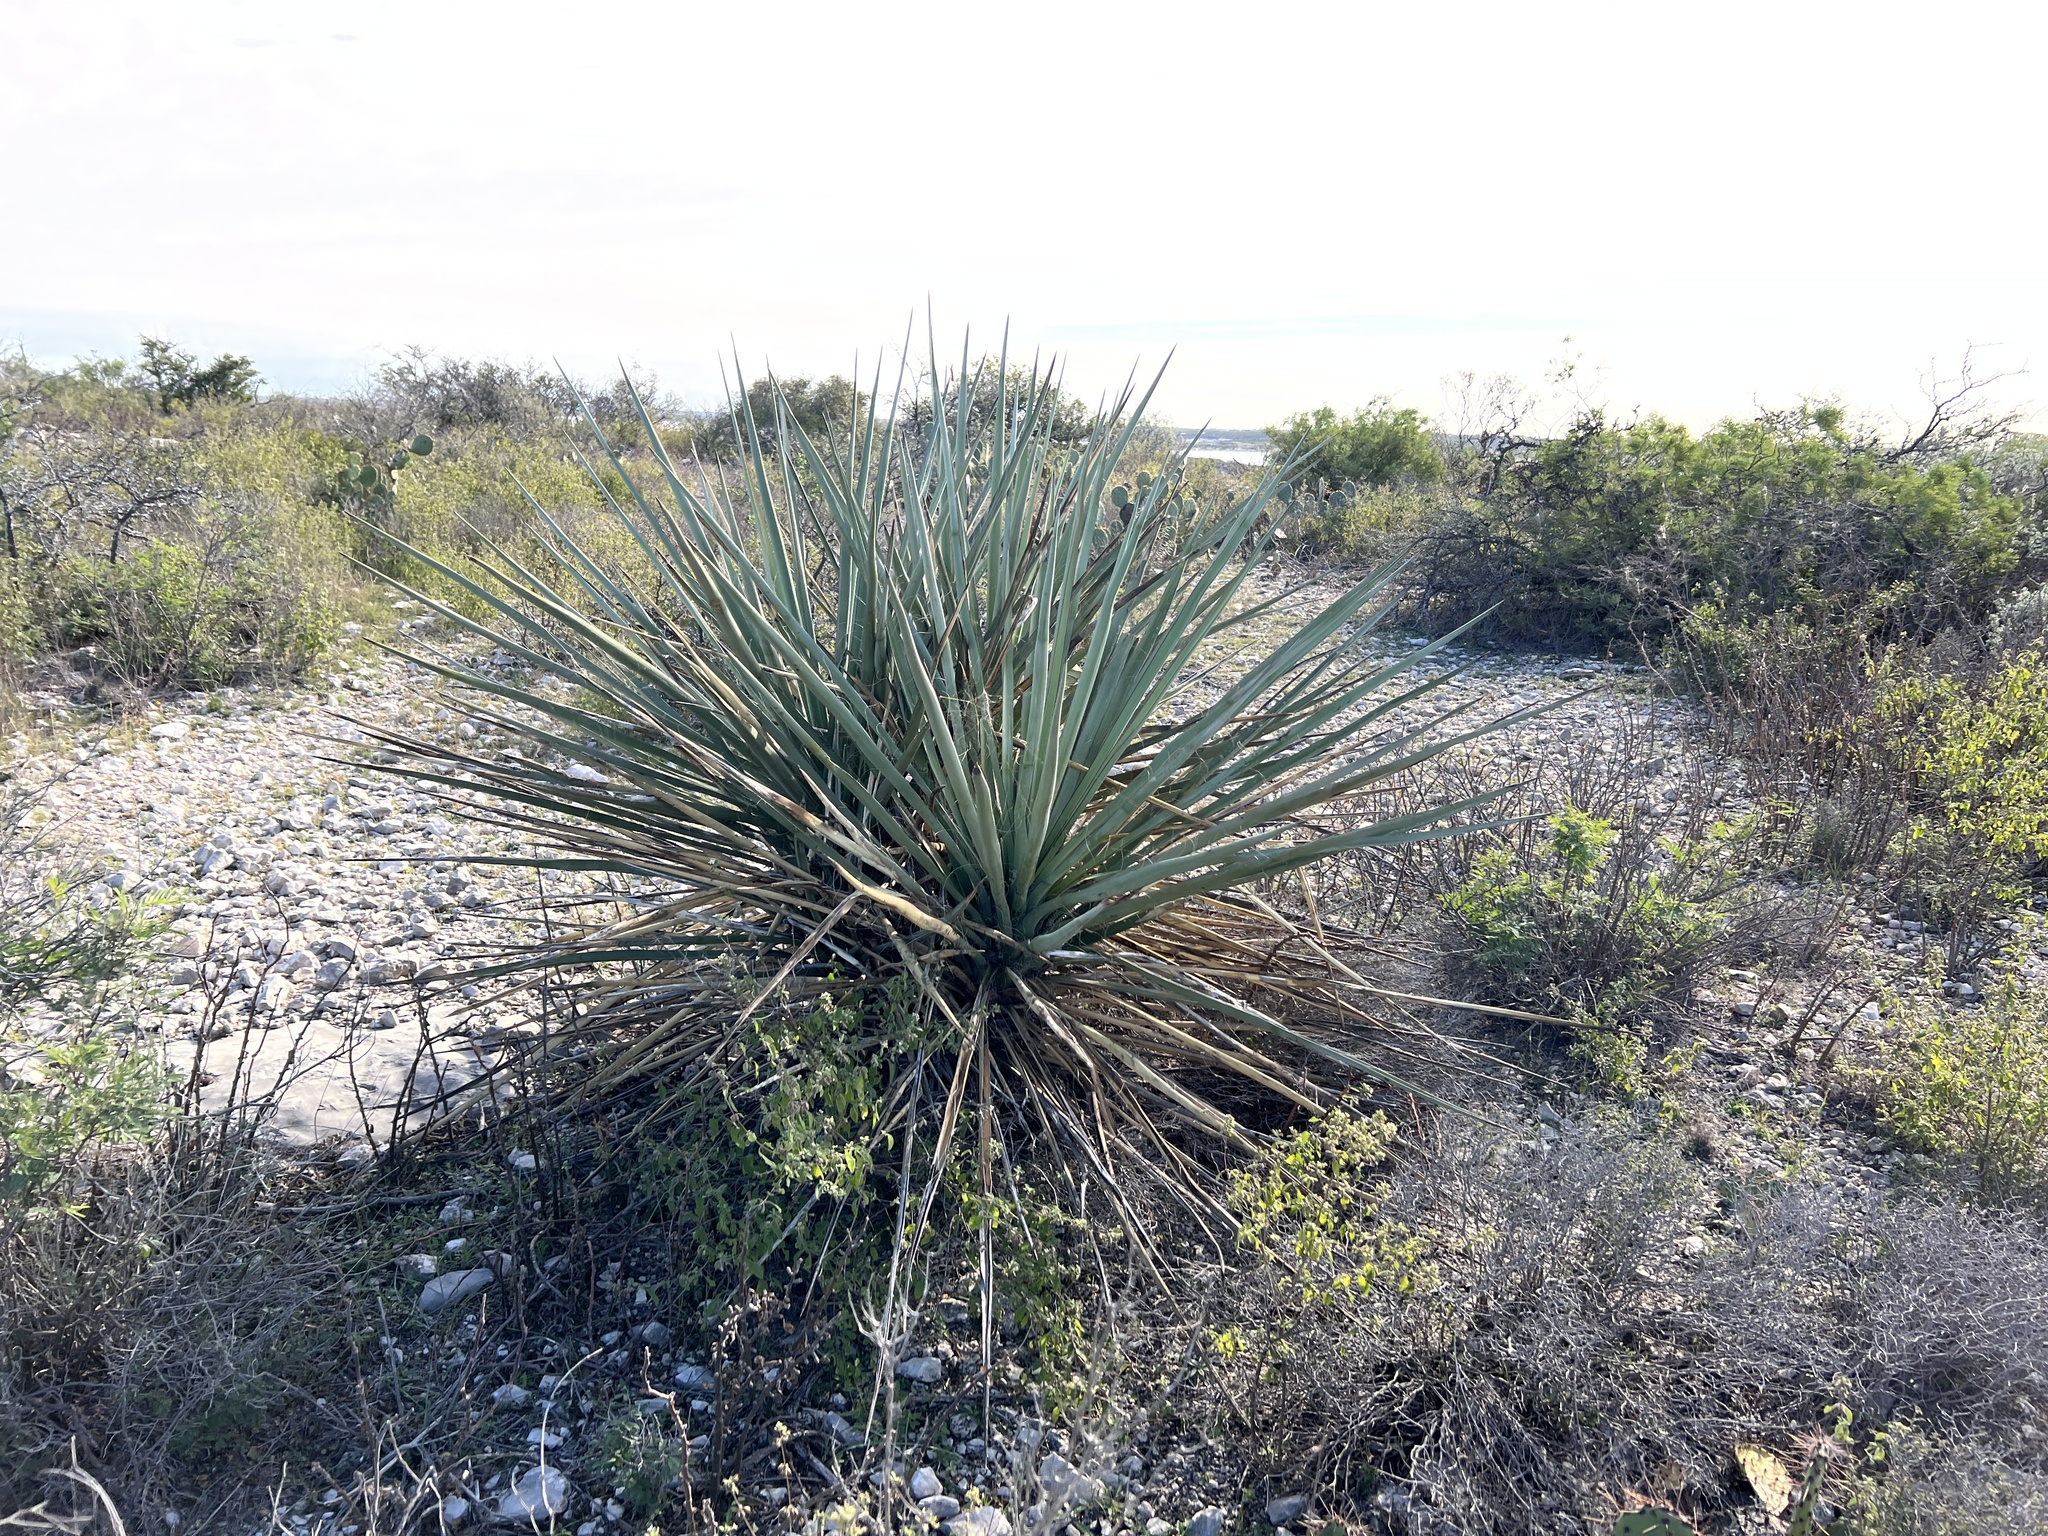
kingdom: Plantae
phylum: Tracheophyta
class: Liliopsida
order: Asparagales
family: Asparagaceae
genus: Yucca
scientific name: Yucca treculiana
